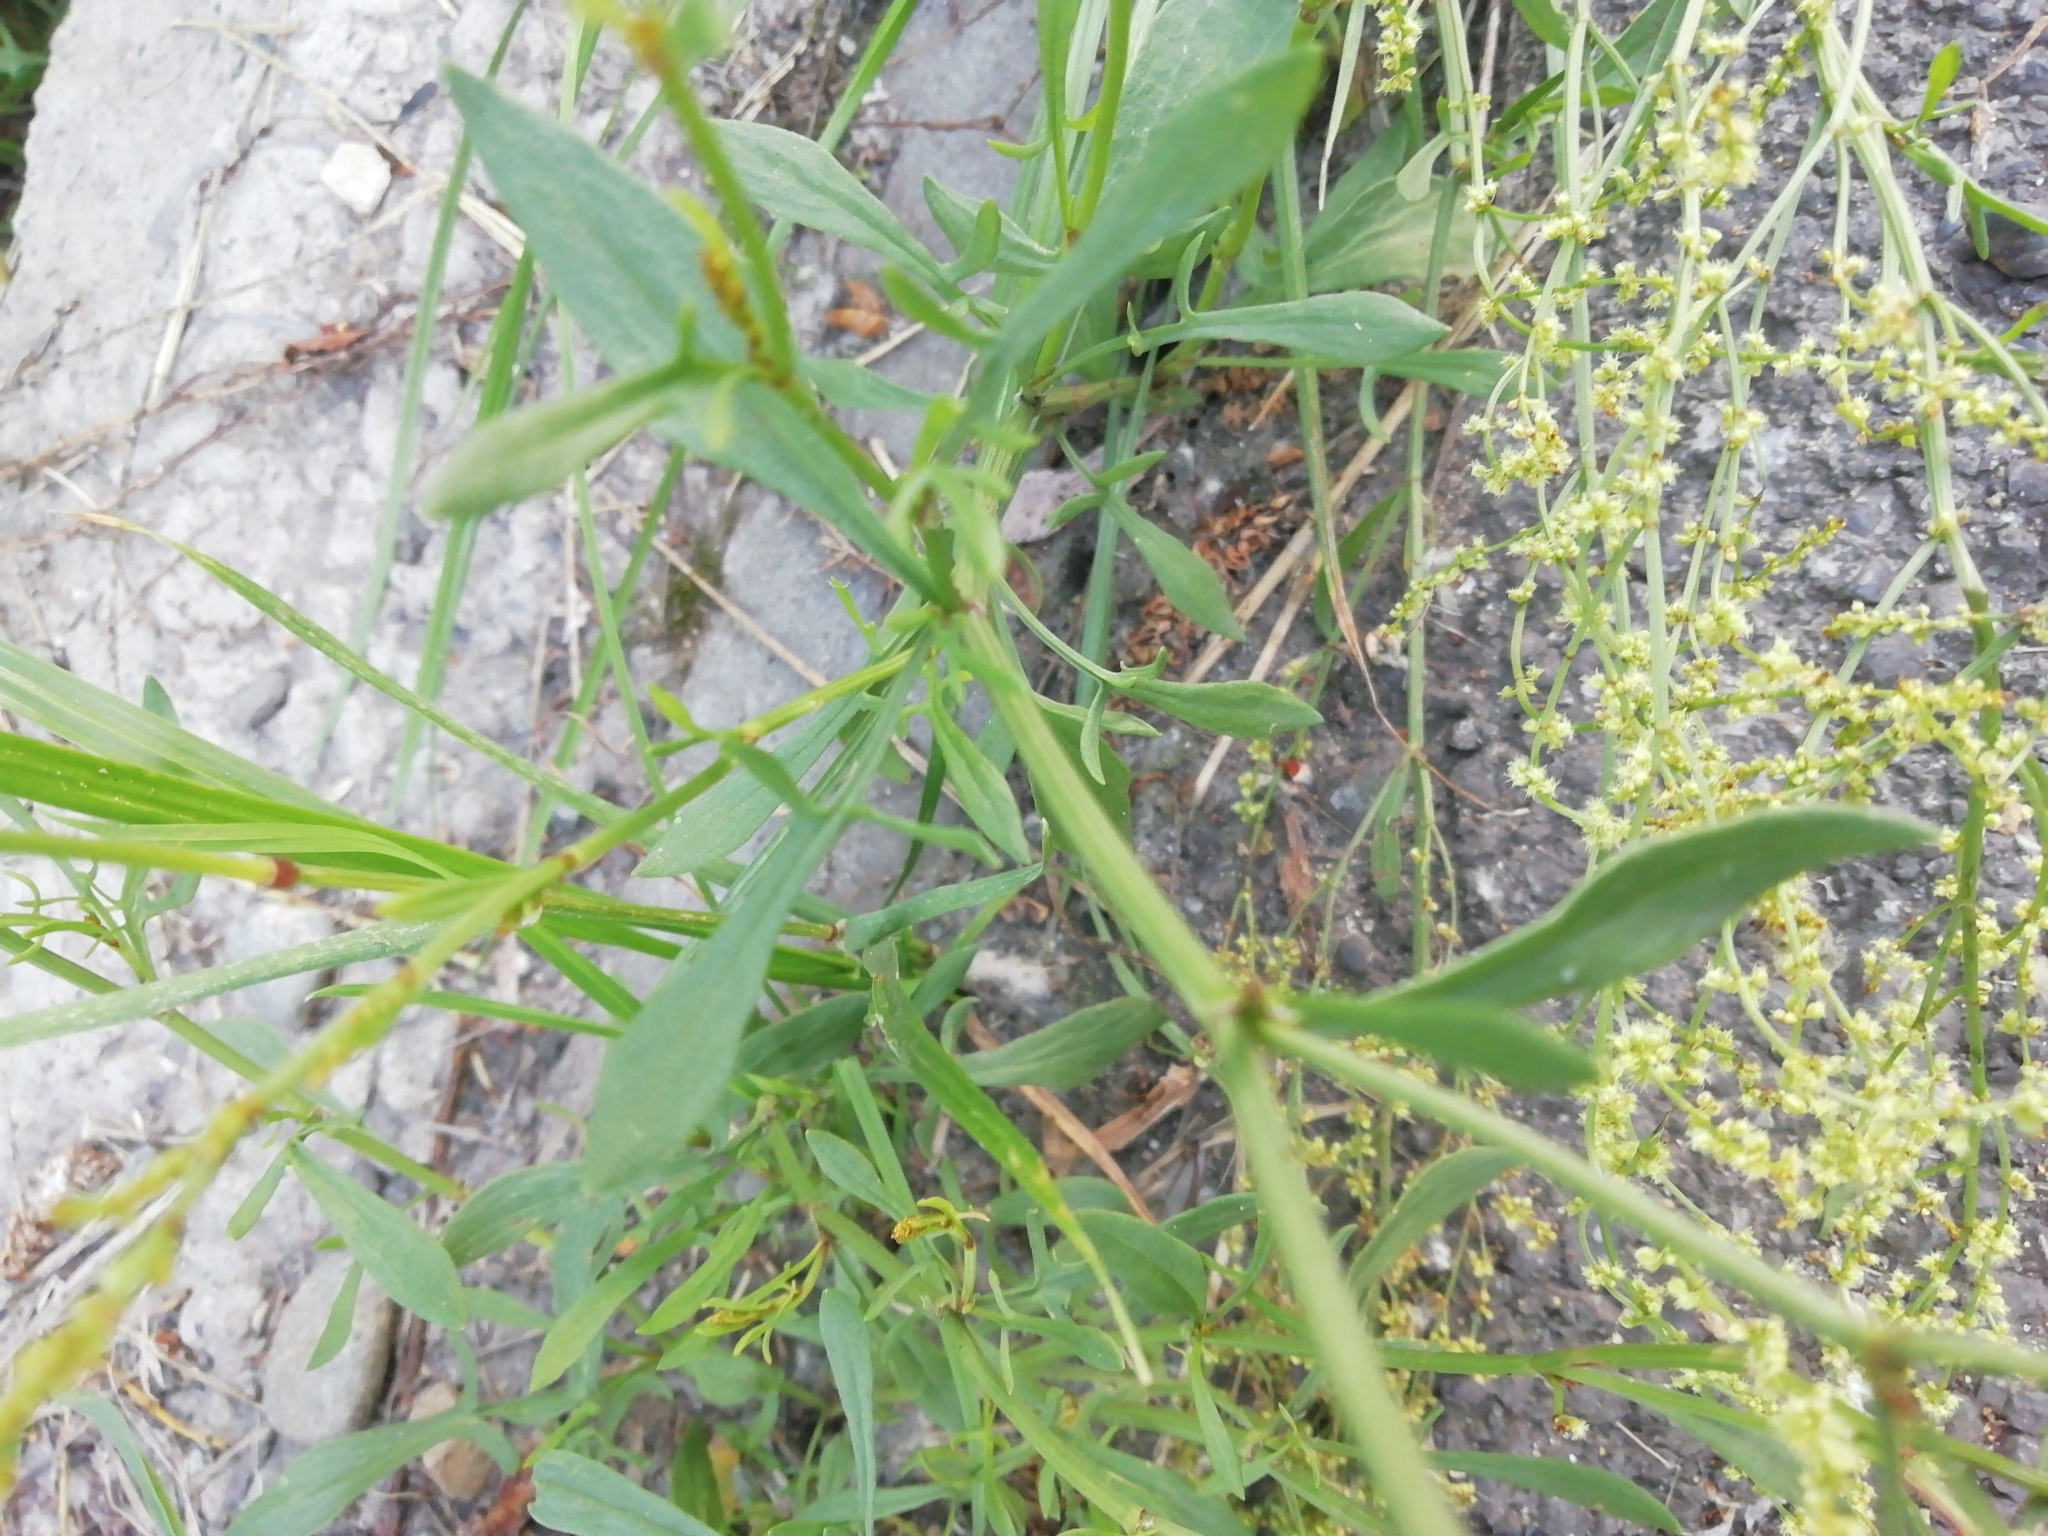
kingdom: Plantae
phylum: Tracheophyta
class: Magnoliopsida
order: Caryophyllales
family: Polygonaceae
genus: Rumex
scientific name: Rumex acetosella
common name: Common sheep sorrel
